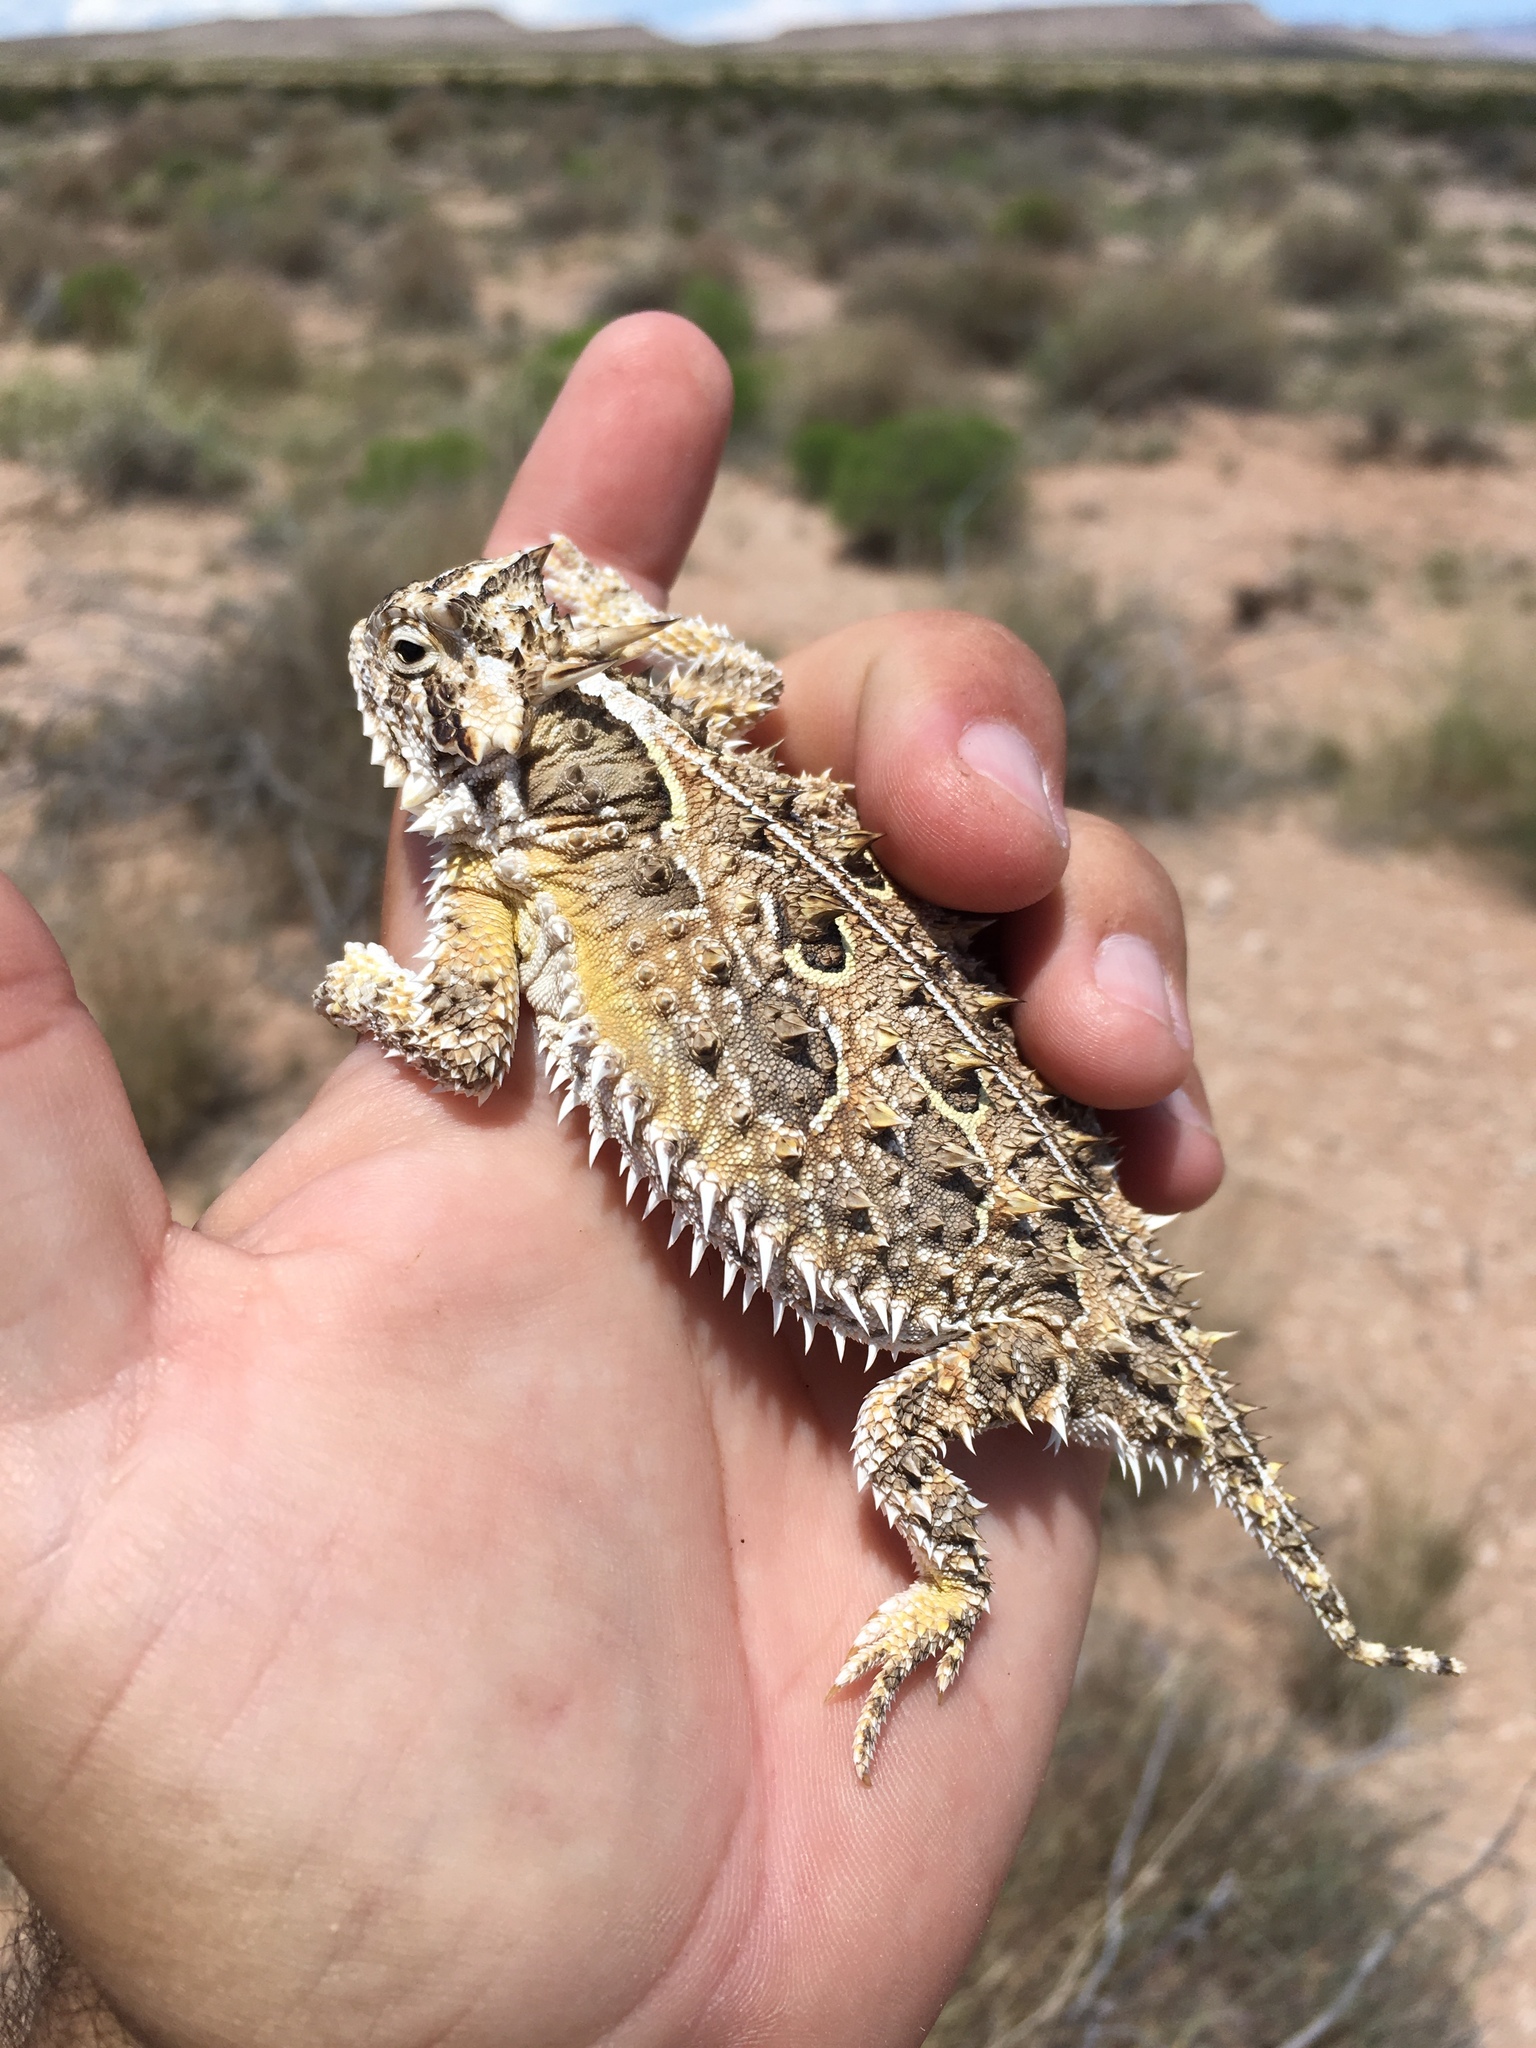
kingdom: Animalia
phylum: Chordata
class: Squamata
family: Phrynosomatidae
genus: Phrynosoma
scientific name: Phrynosoma cornutum
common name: Texas horned lizard
